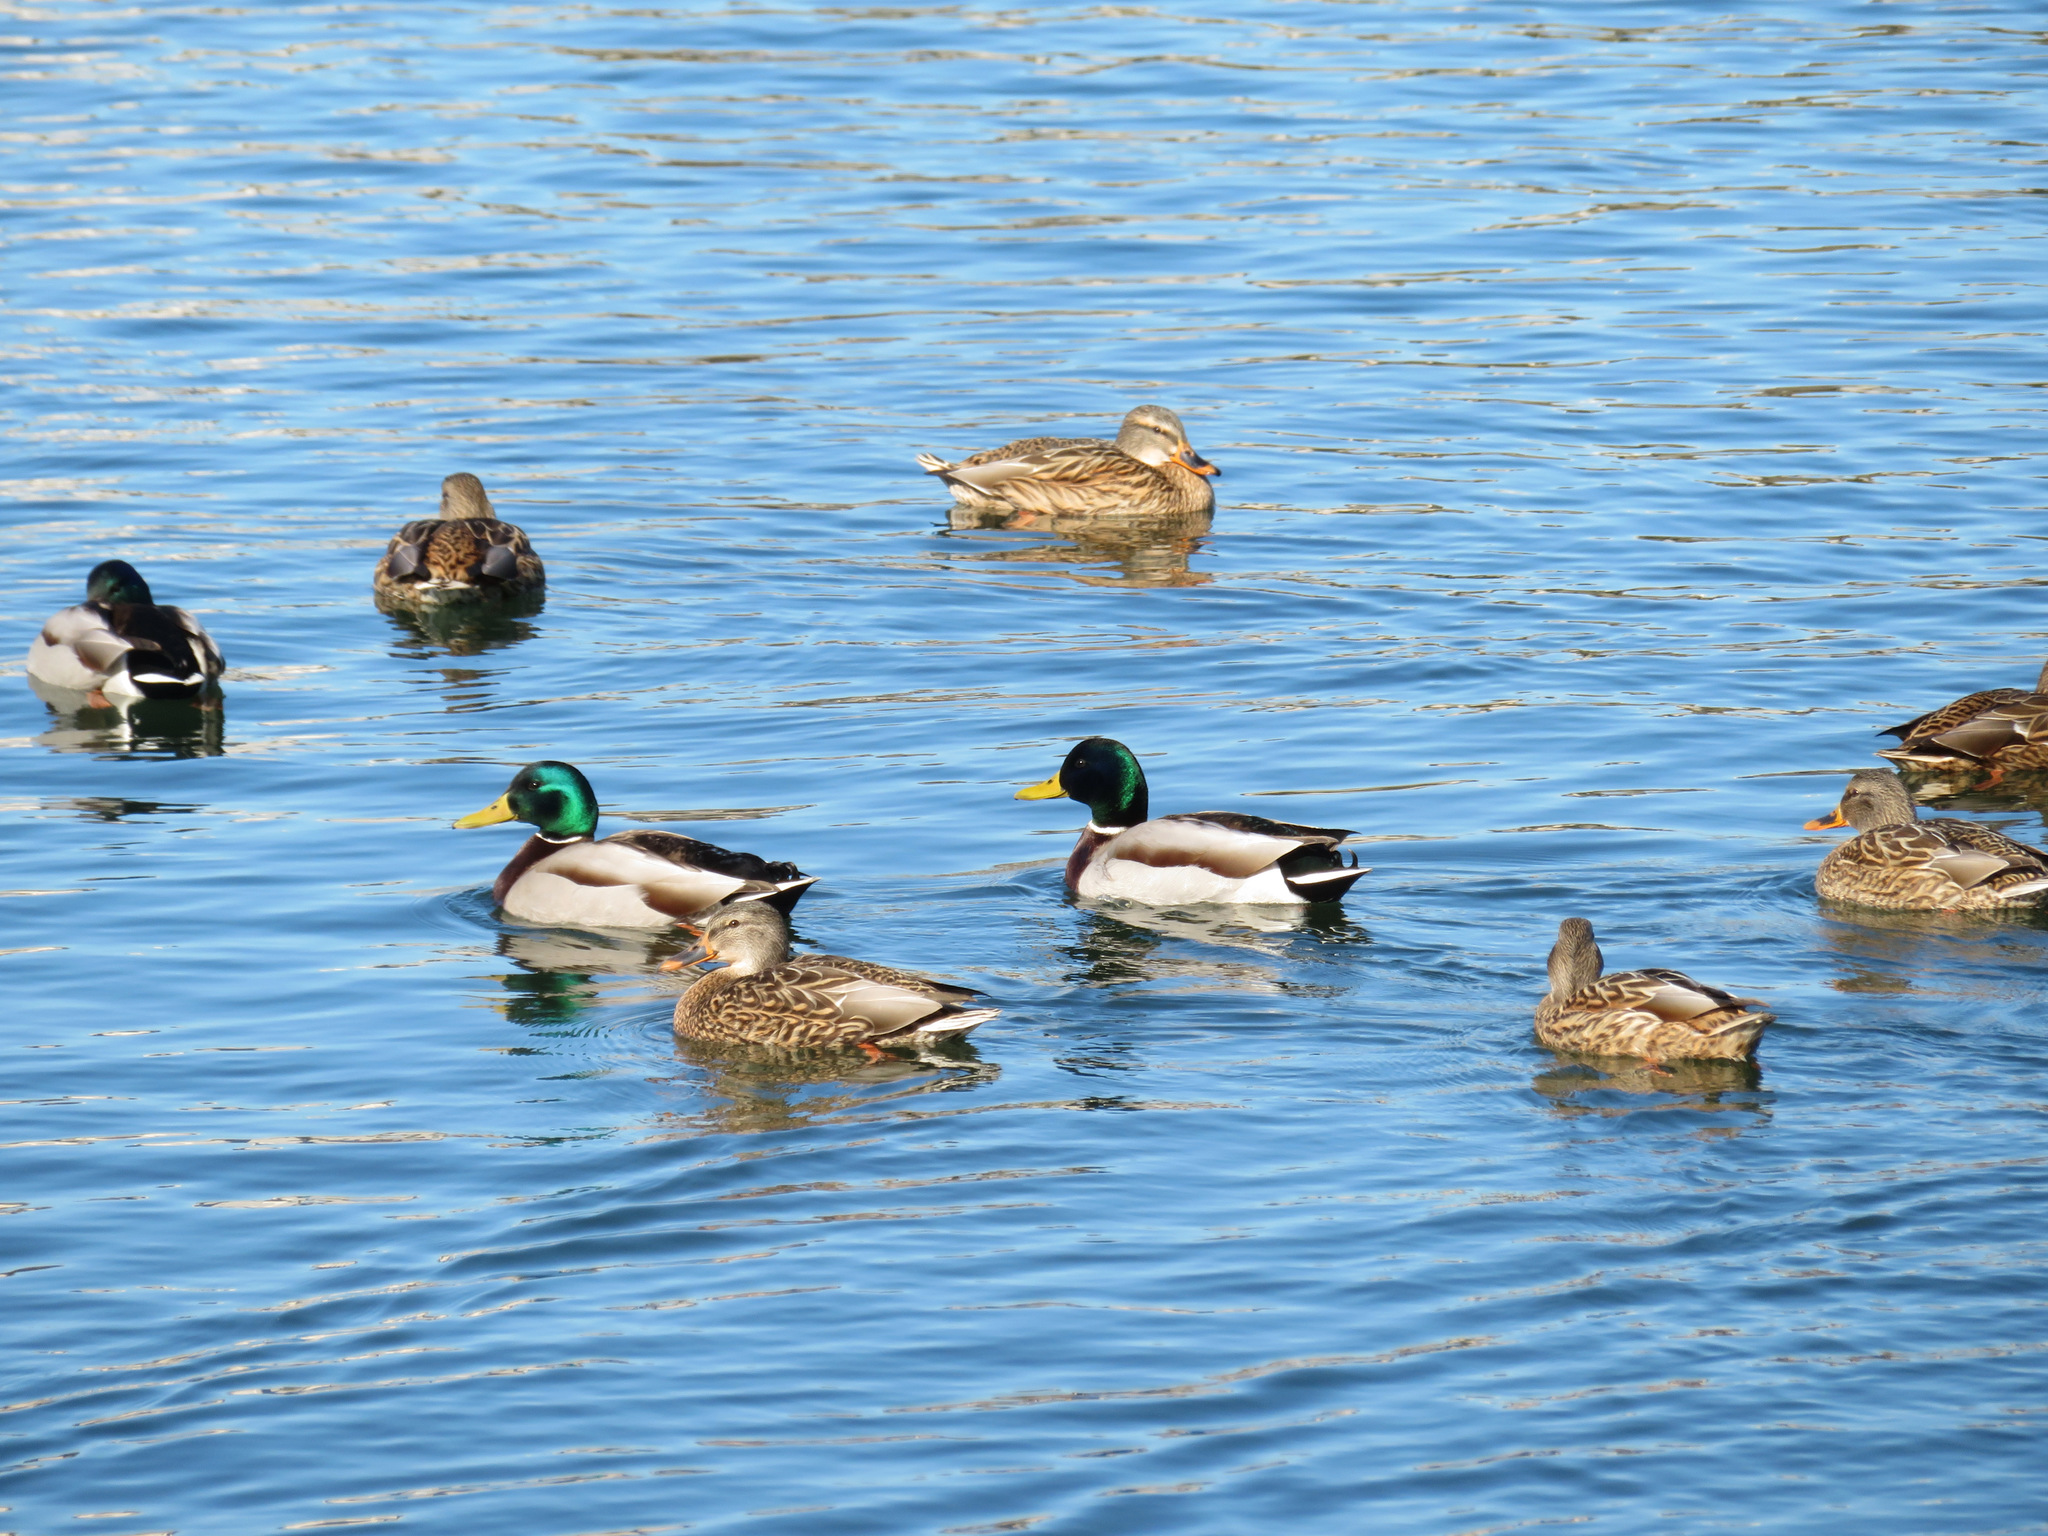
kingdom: Animalia
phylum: Chordata
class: Aves
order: Anseriformes
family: Anatidae
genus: Anas
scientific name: Anas platyrhynchos
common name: Mallard
